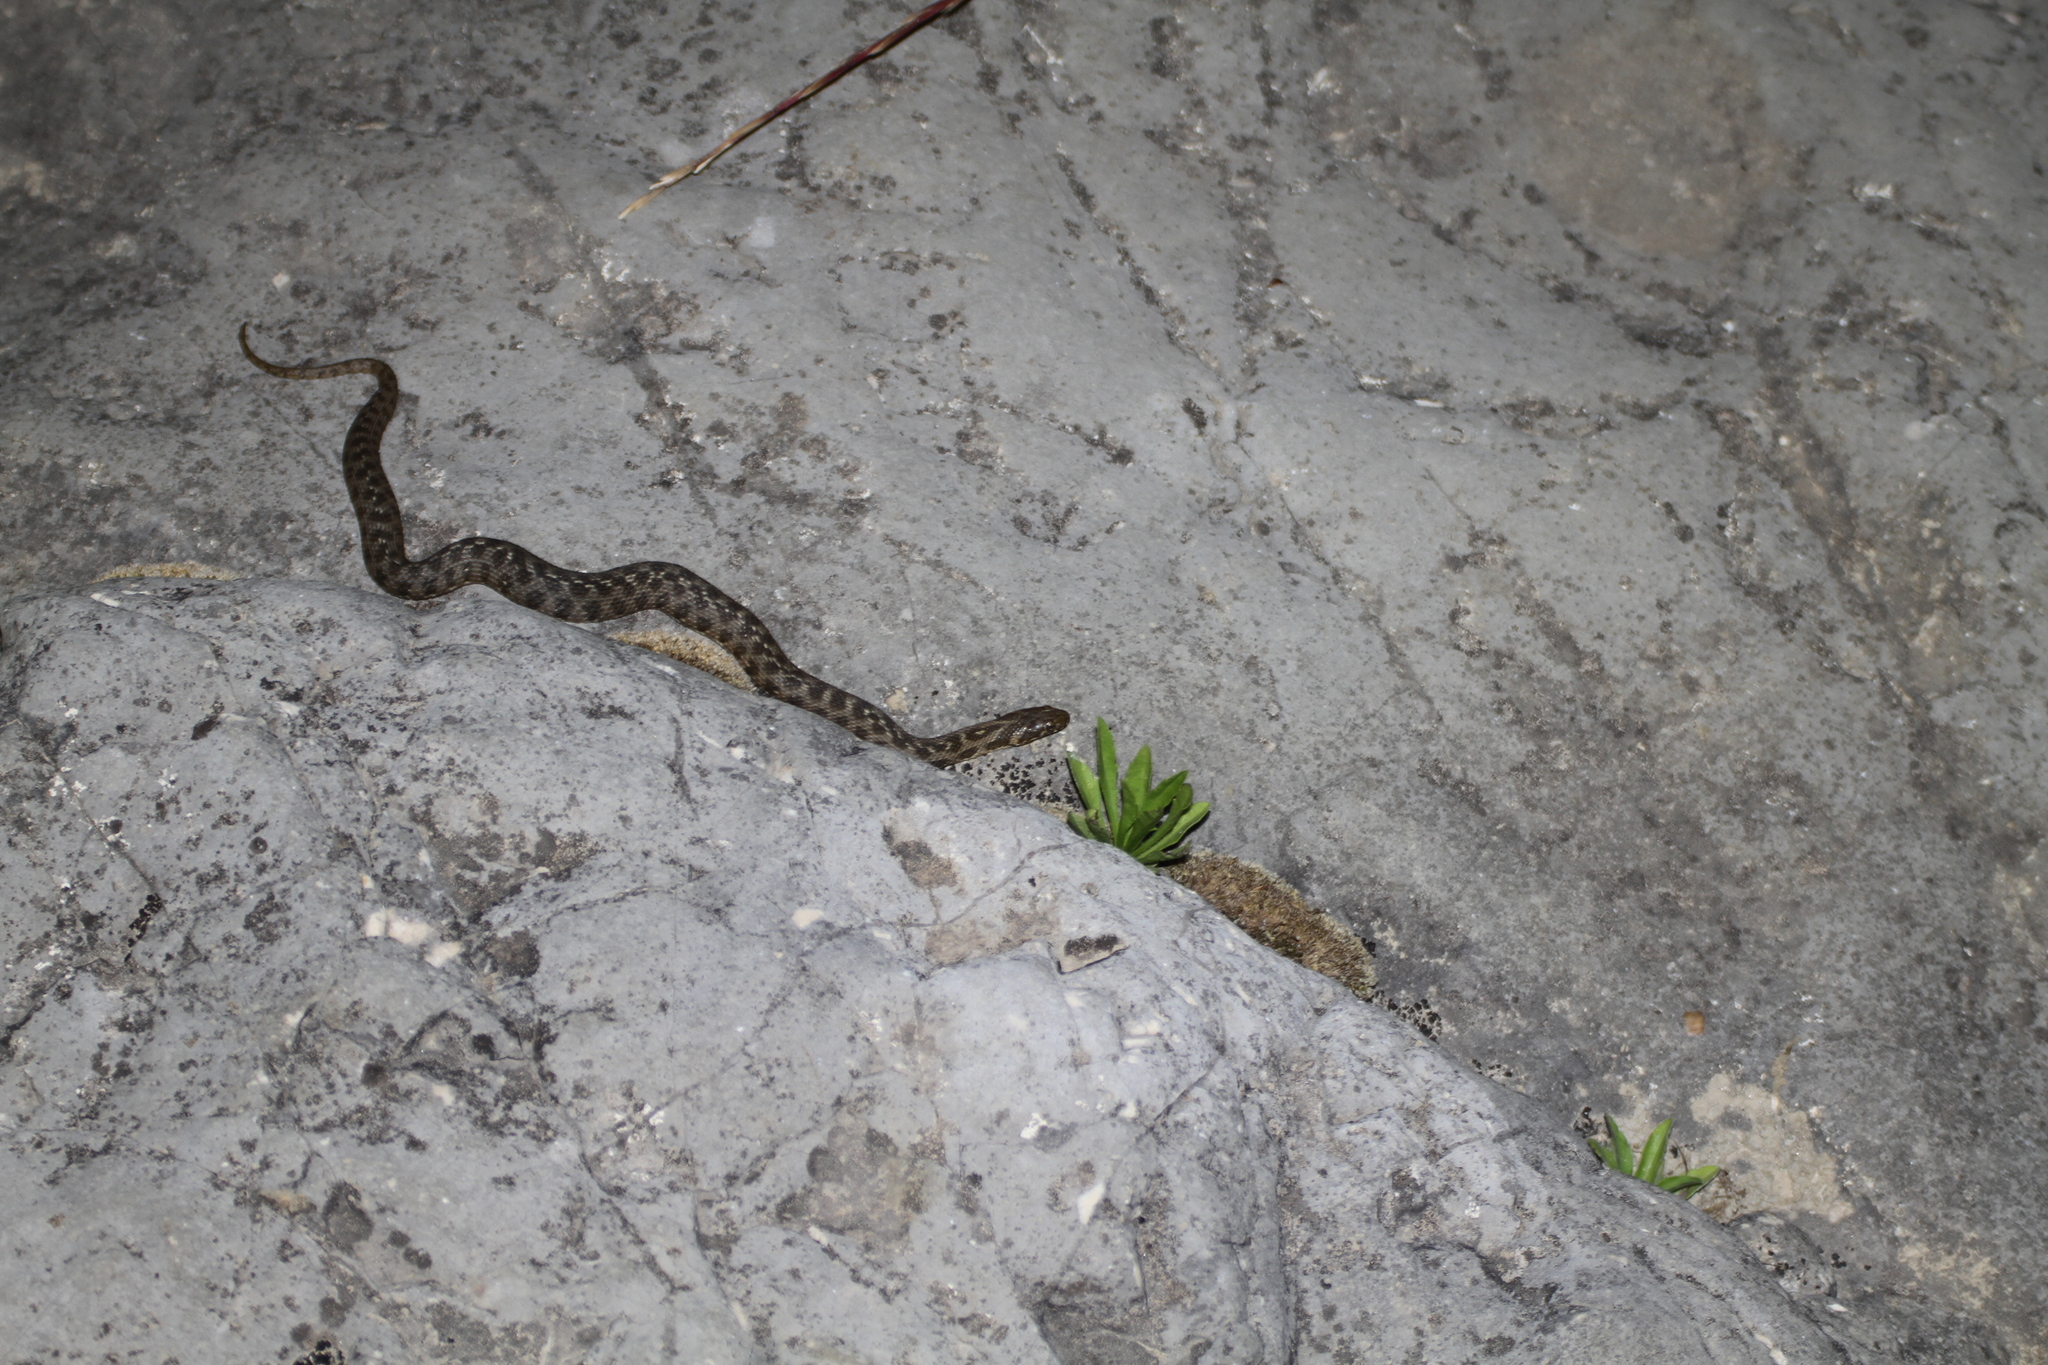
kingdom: Animalia
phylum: Chordata
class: Squamata
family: Colubridae
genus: Natrix
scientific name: Natrix maura
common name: Viperine water snake
